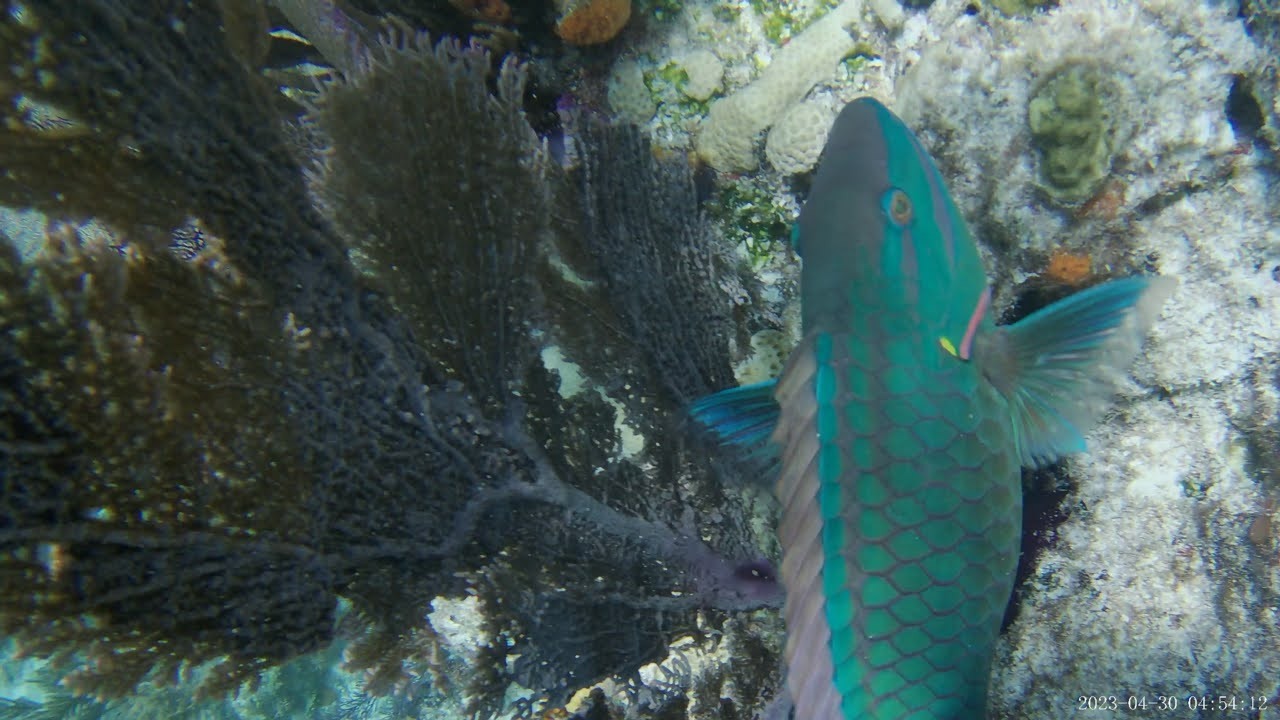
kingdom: Animalia
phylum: Chordata
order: Perciformes
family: Scaridae
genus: Sparisoma
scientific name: Sparisoma viride
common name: Stoplight parrotfish
